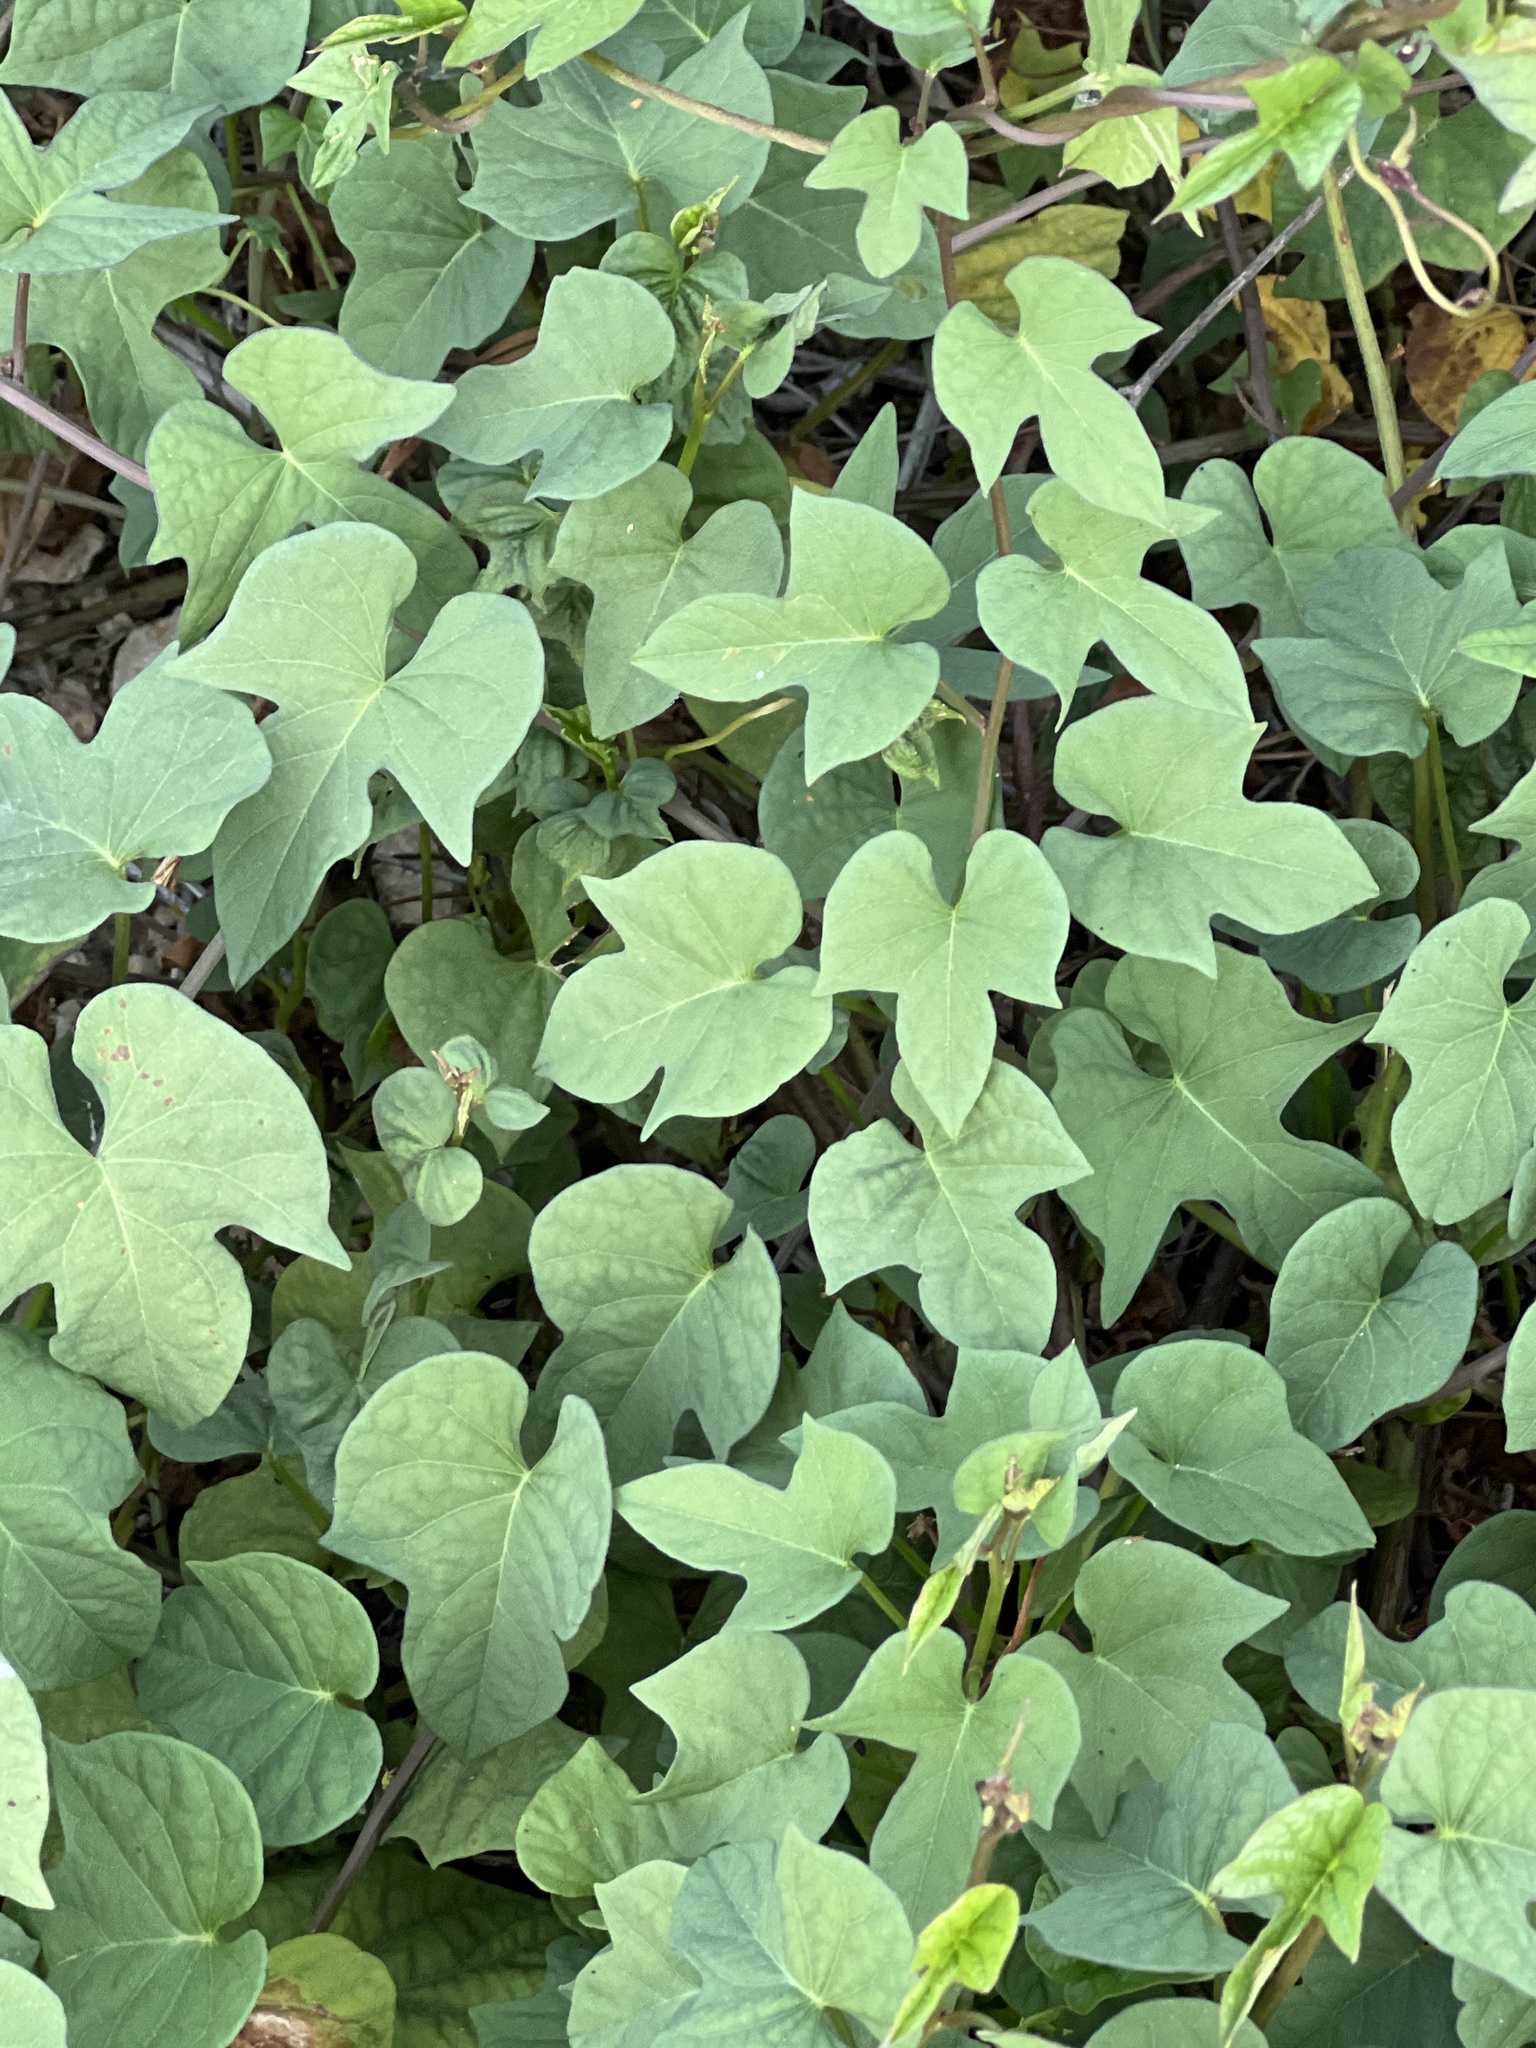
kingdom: Plantae
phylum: Tracheophyta
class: Magnoliopsida
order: Solanales
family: Convolvulaceae
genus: Ipomoea
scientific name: Ipomoea cordatotriloba
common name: Cotton morning glory
